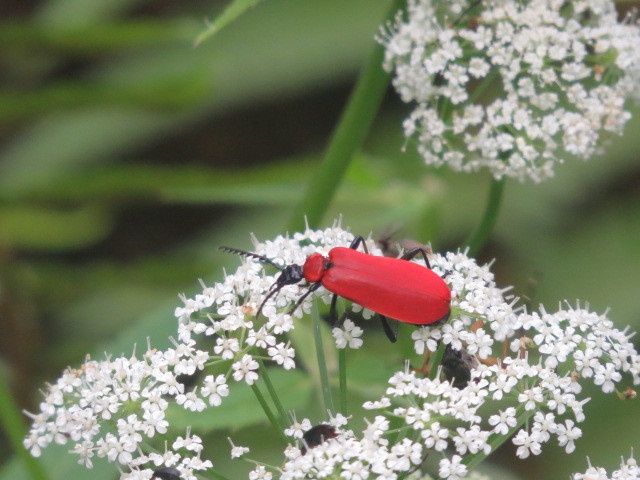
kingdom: Animalia
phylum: Arthropoda
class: Insecta
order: Coleoptera
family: Pyrochroidae
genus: Pyrochroa
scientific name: Pyrochroa coccinea
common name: Black-headed cardinal beetle
